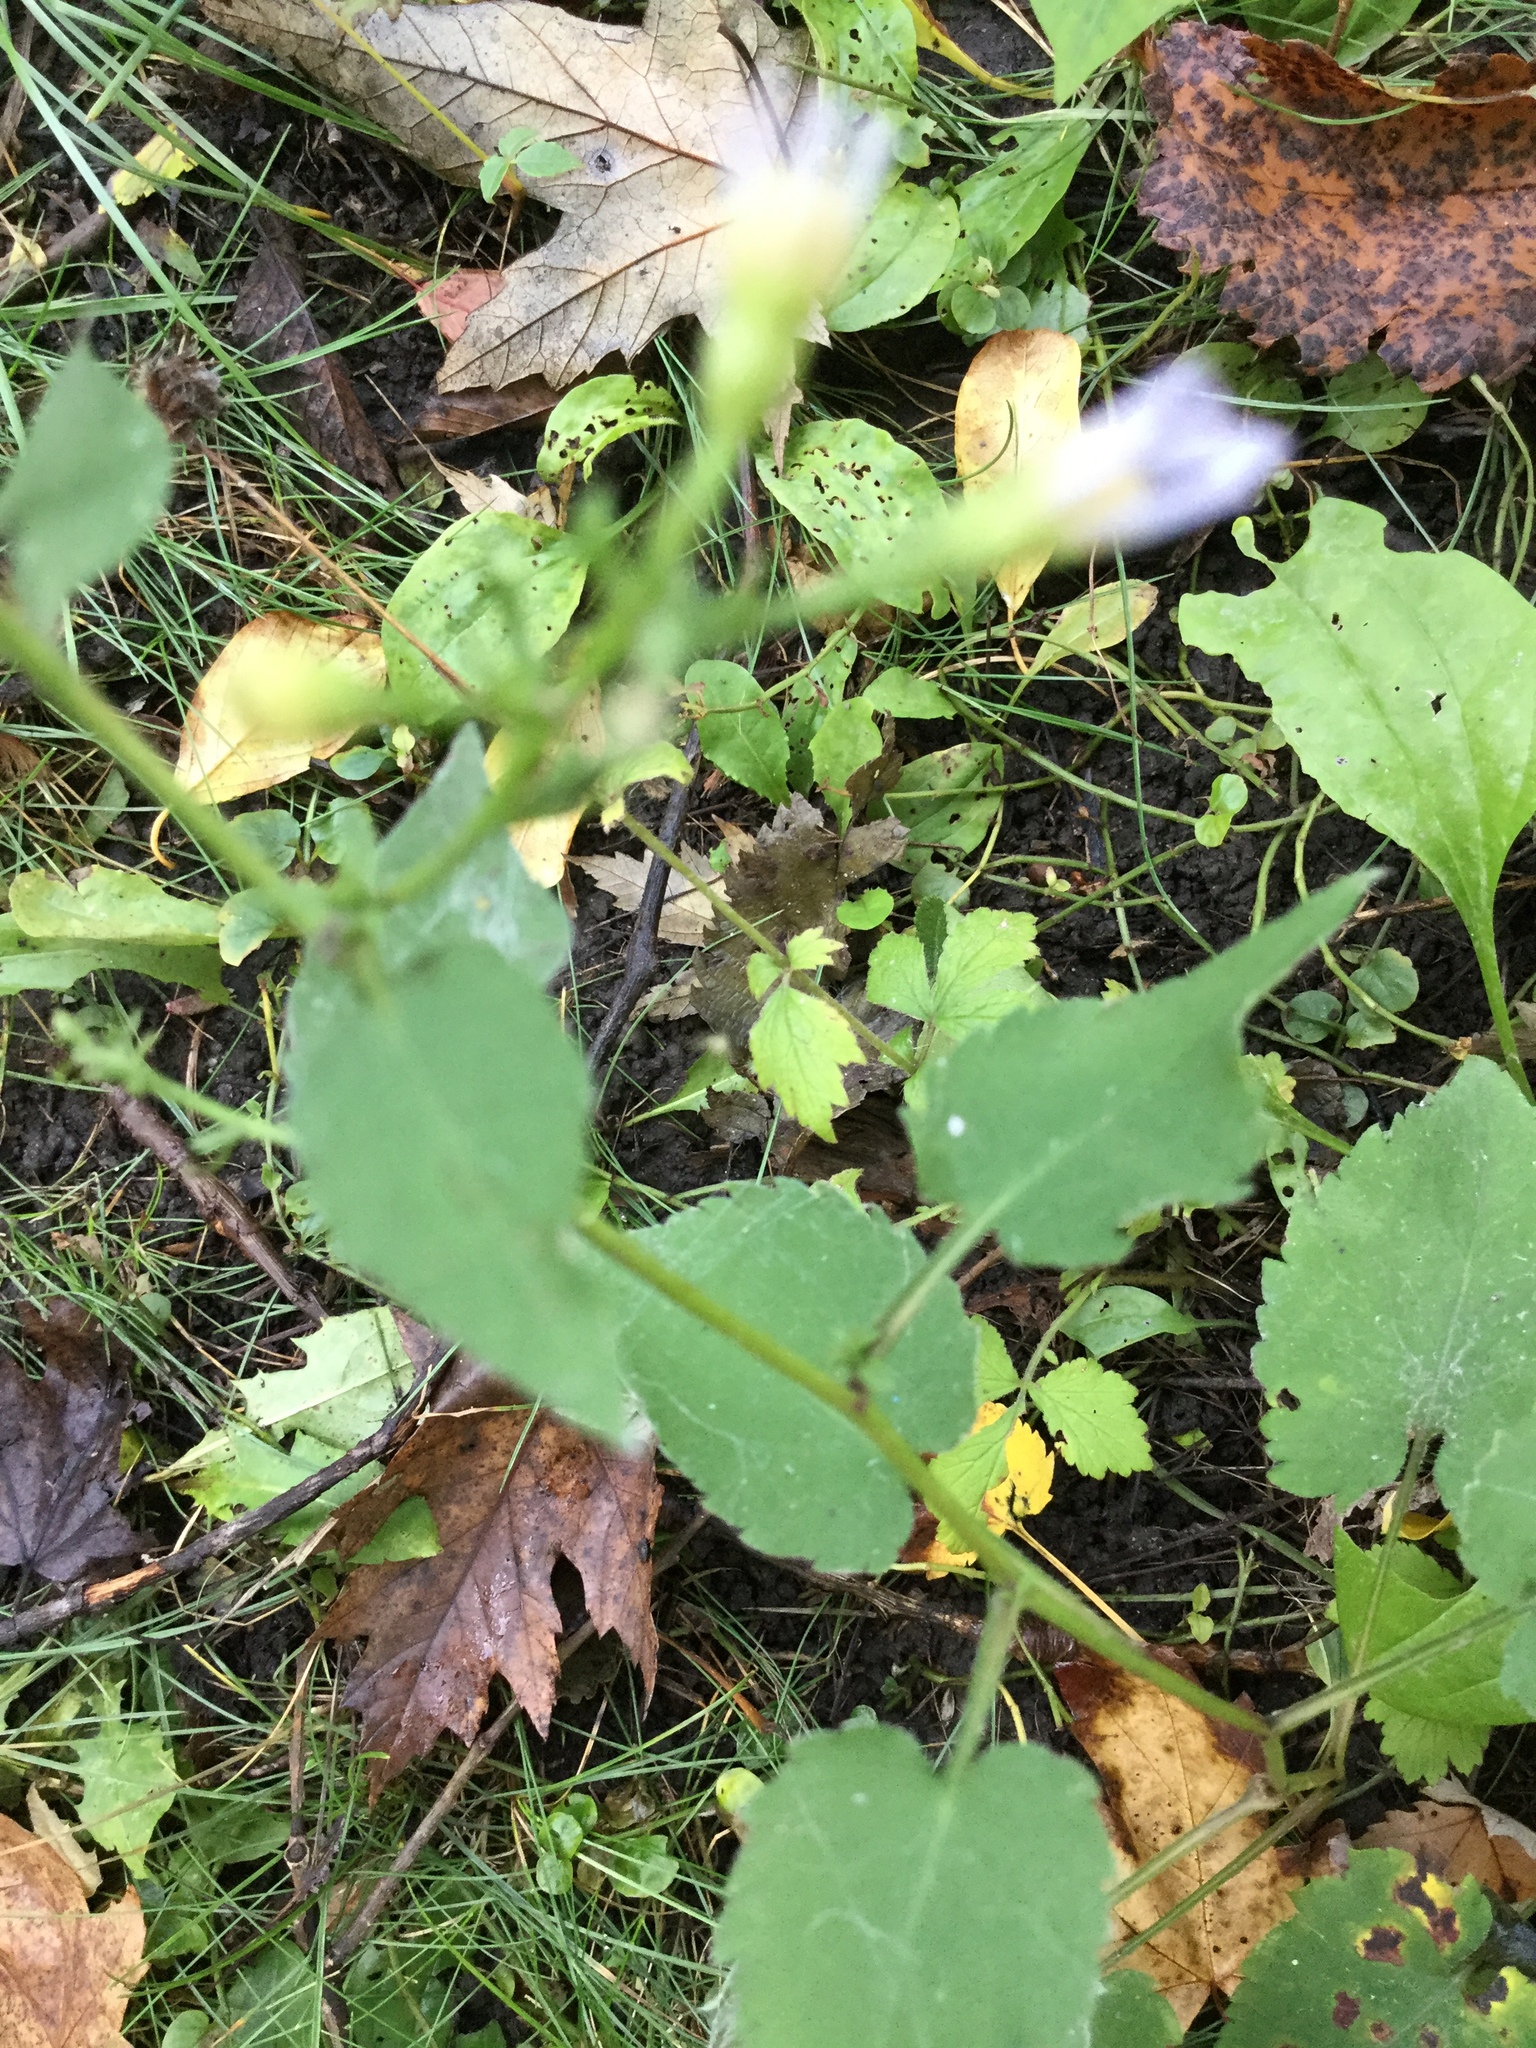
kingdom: Plantae
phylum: Tracheophyta
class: Magnoliopsida
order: Asterales
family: Asteraceae
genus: Symphyotrichum
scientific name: Symphyotrichum cordifolium
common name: Beeweed
